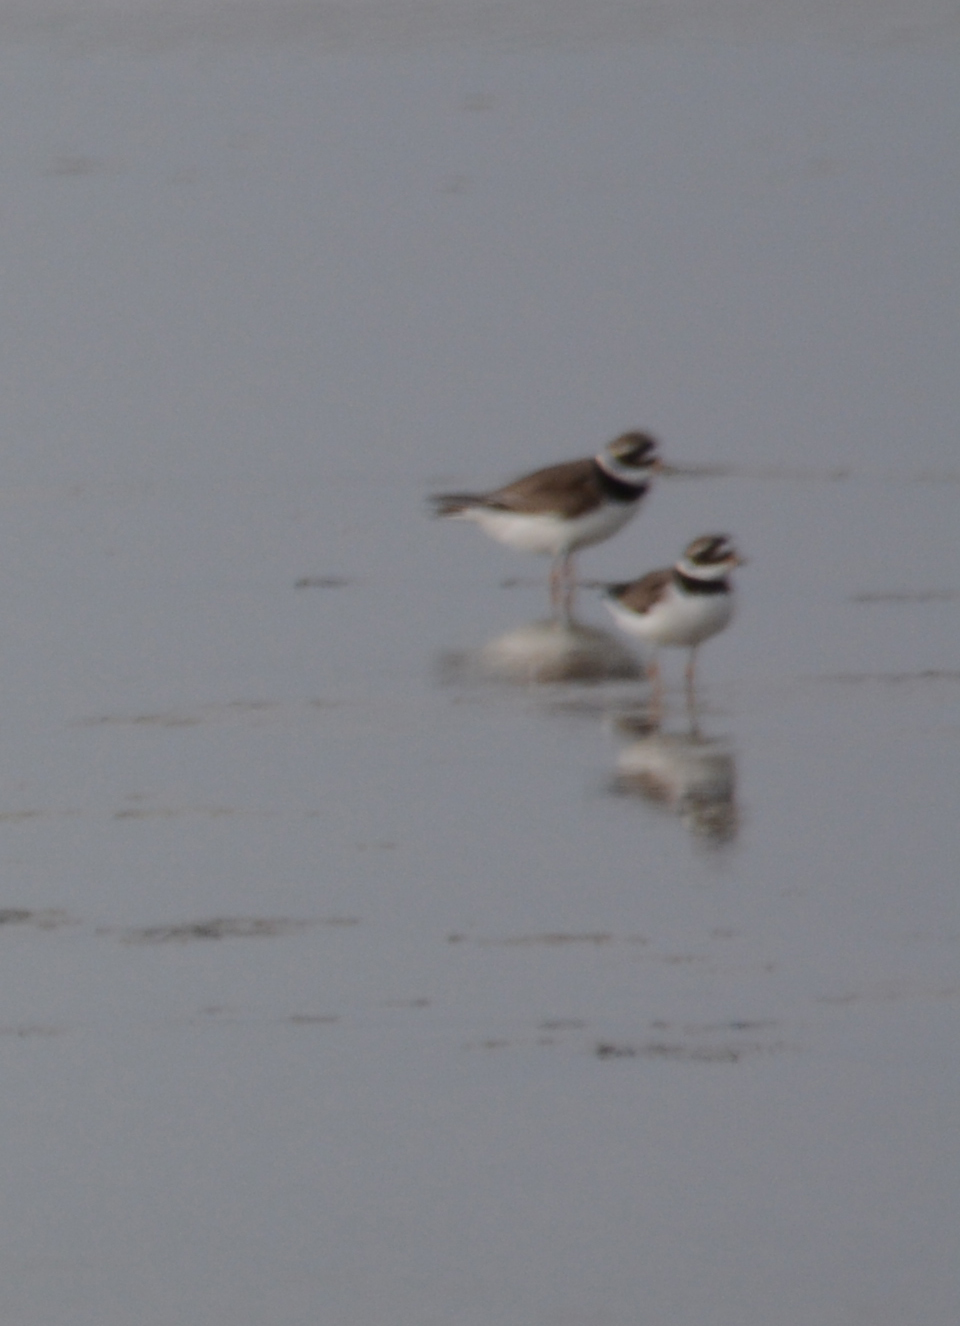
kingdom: Animalia
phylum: Chordata
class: Aves
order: Charadriiformes
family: Charadriidae
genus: Charadrius
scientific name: Charadrius hiaticula
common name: Common ringed plover
